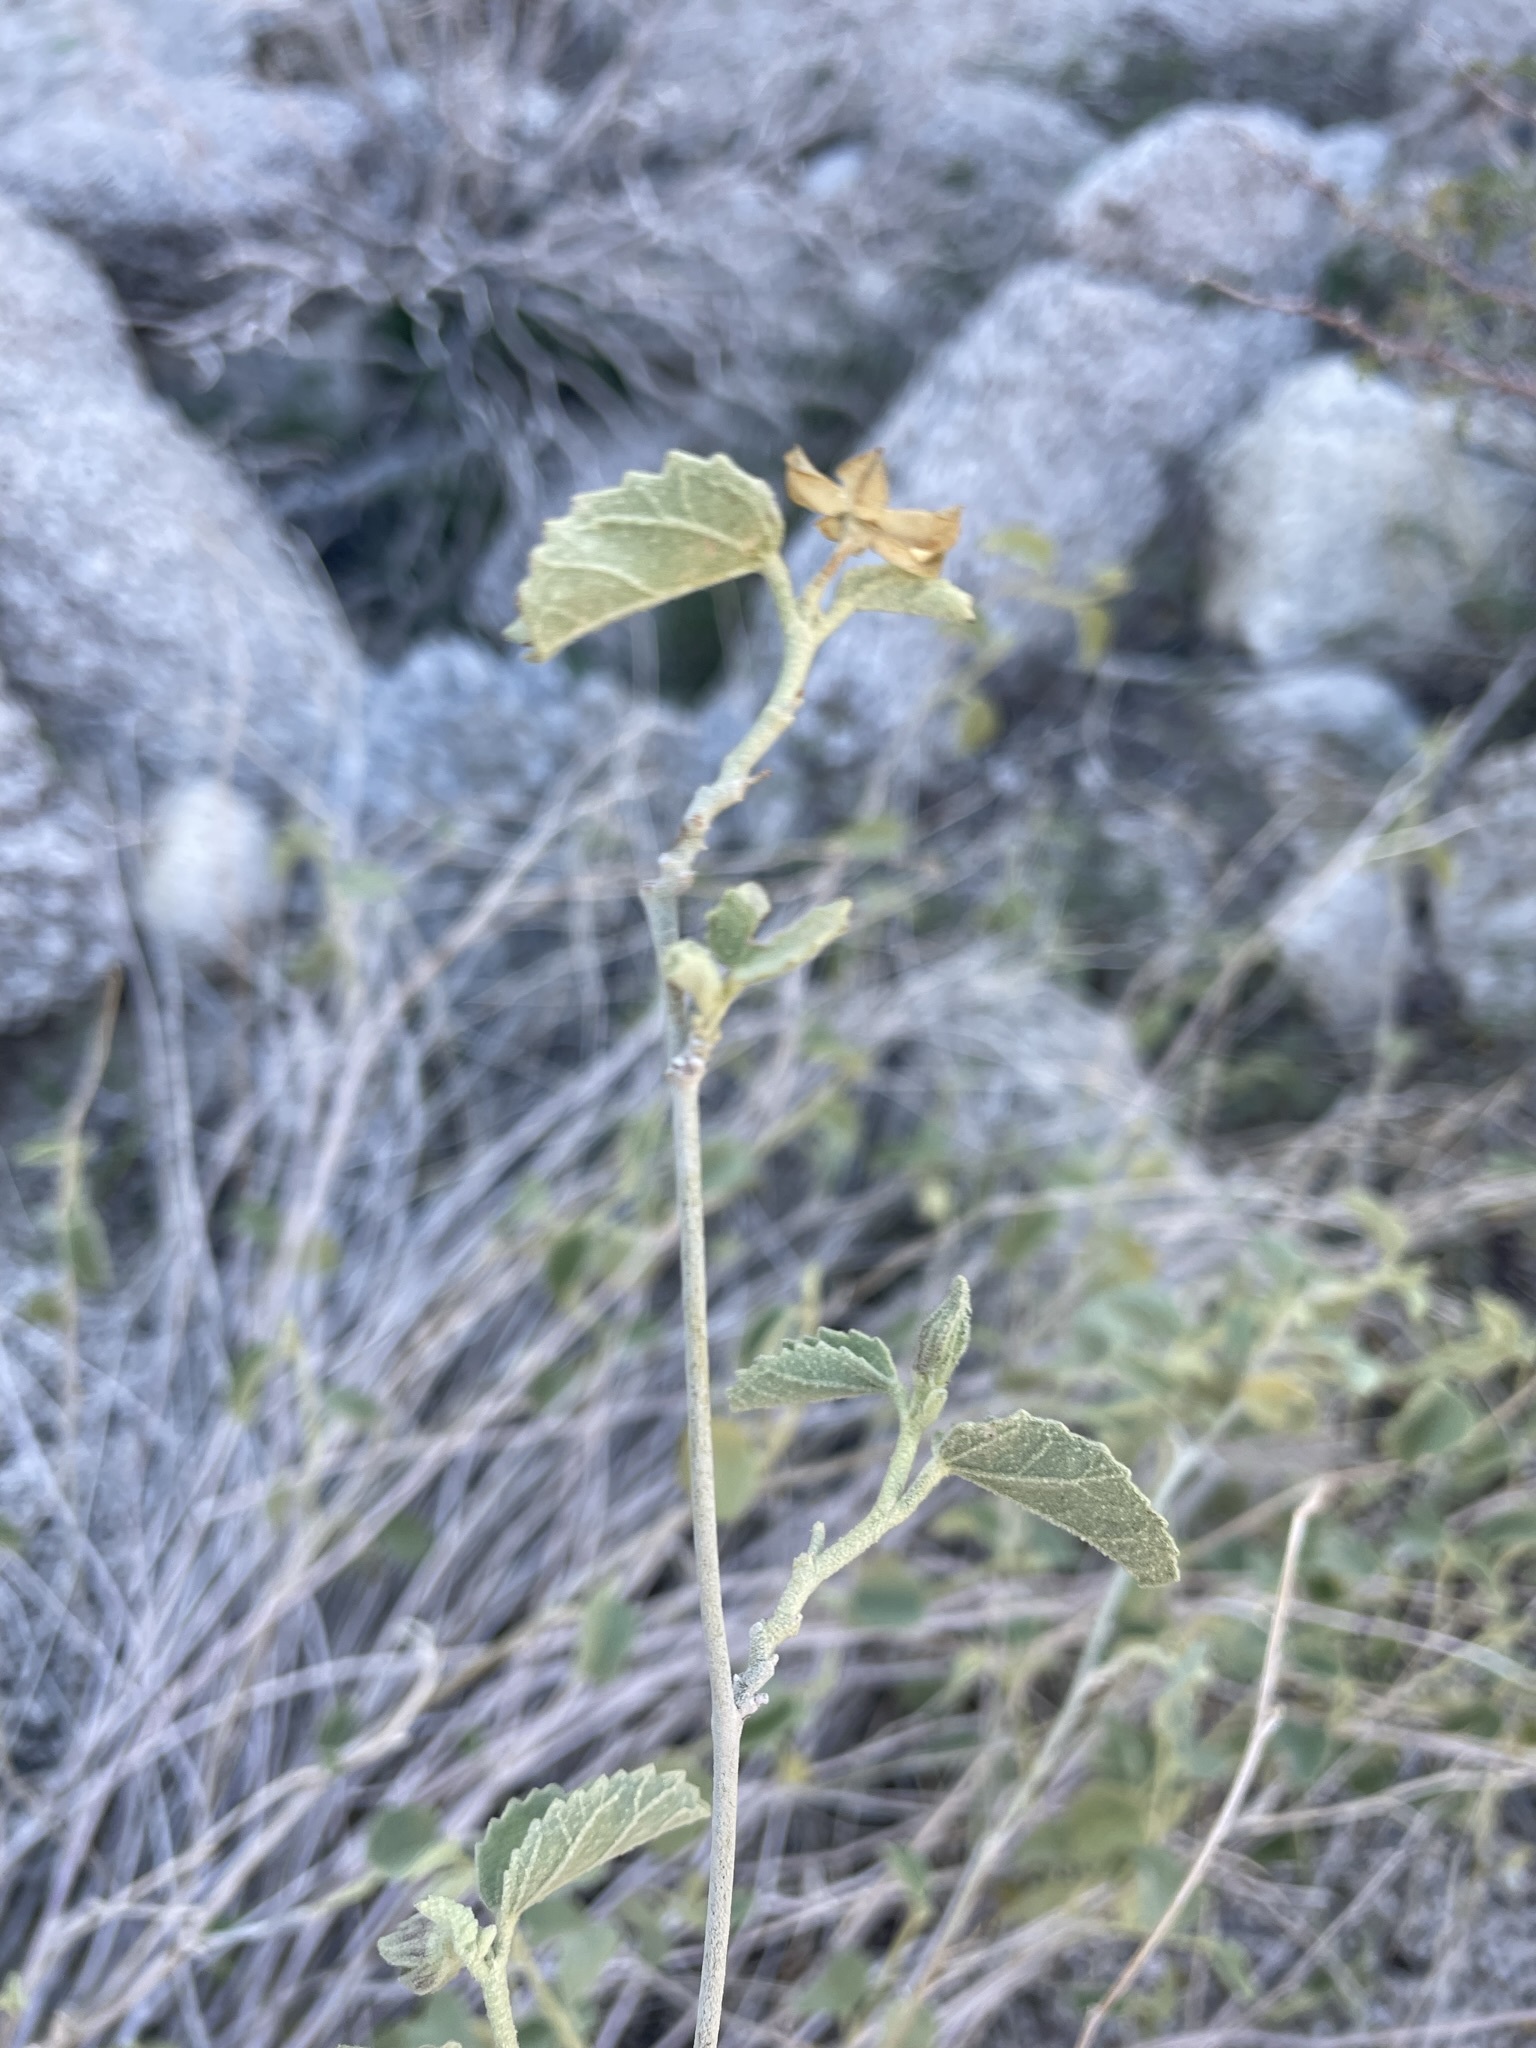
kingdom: Plantae
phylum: Tracheophyta
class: Magnoliopsida
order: Malvales
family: Malvaceae
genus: Hibiscus
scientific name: Hibiscus denudatus
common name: Paleface
